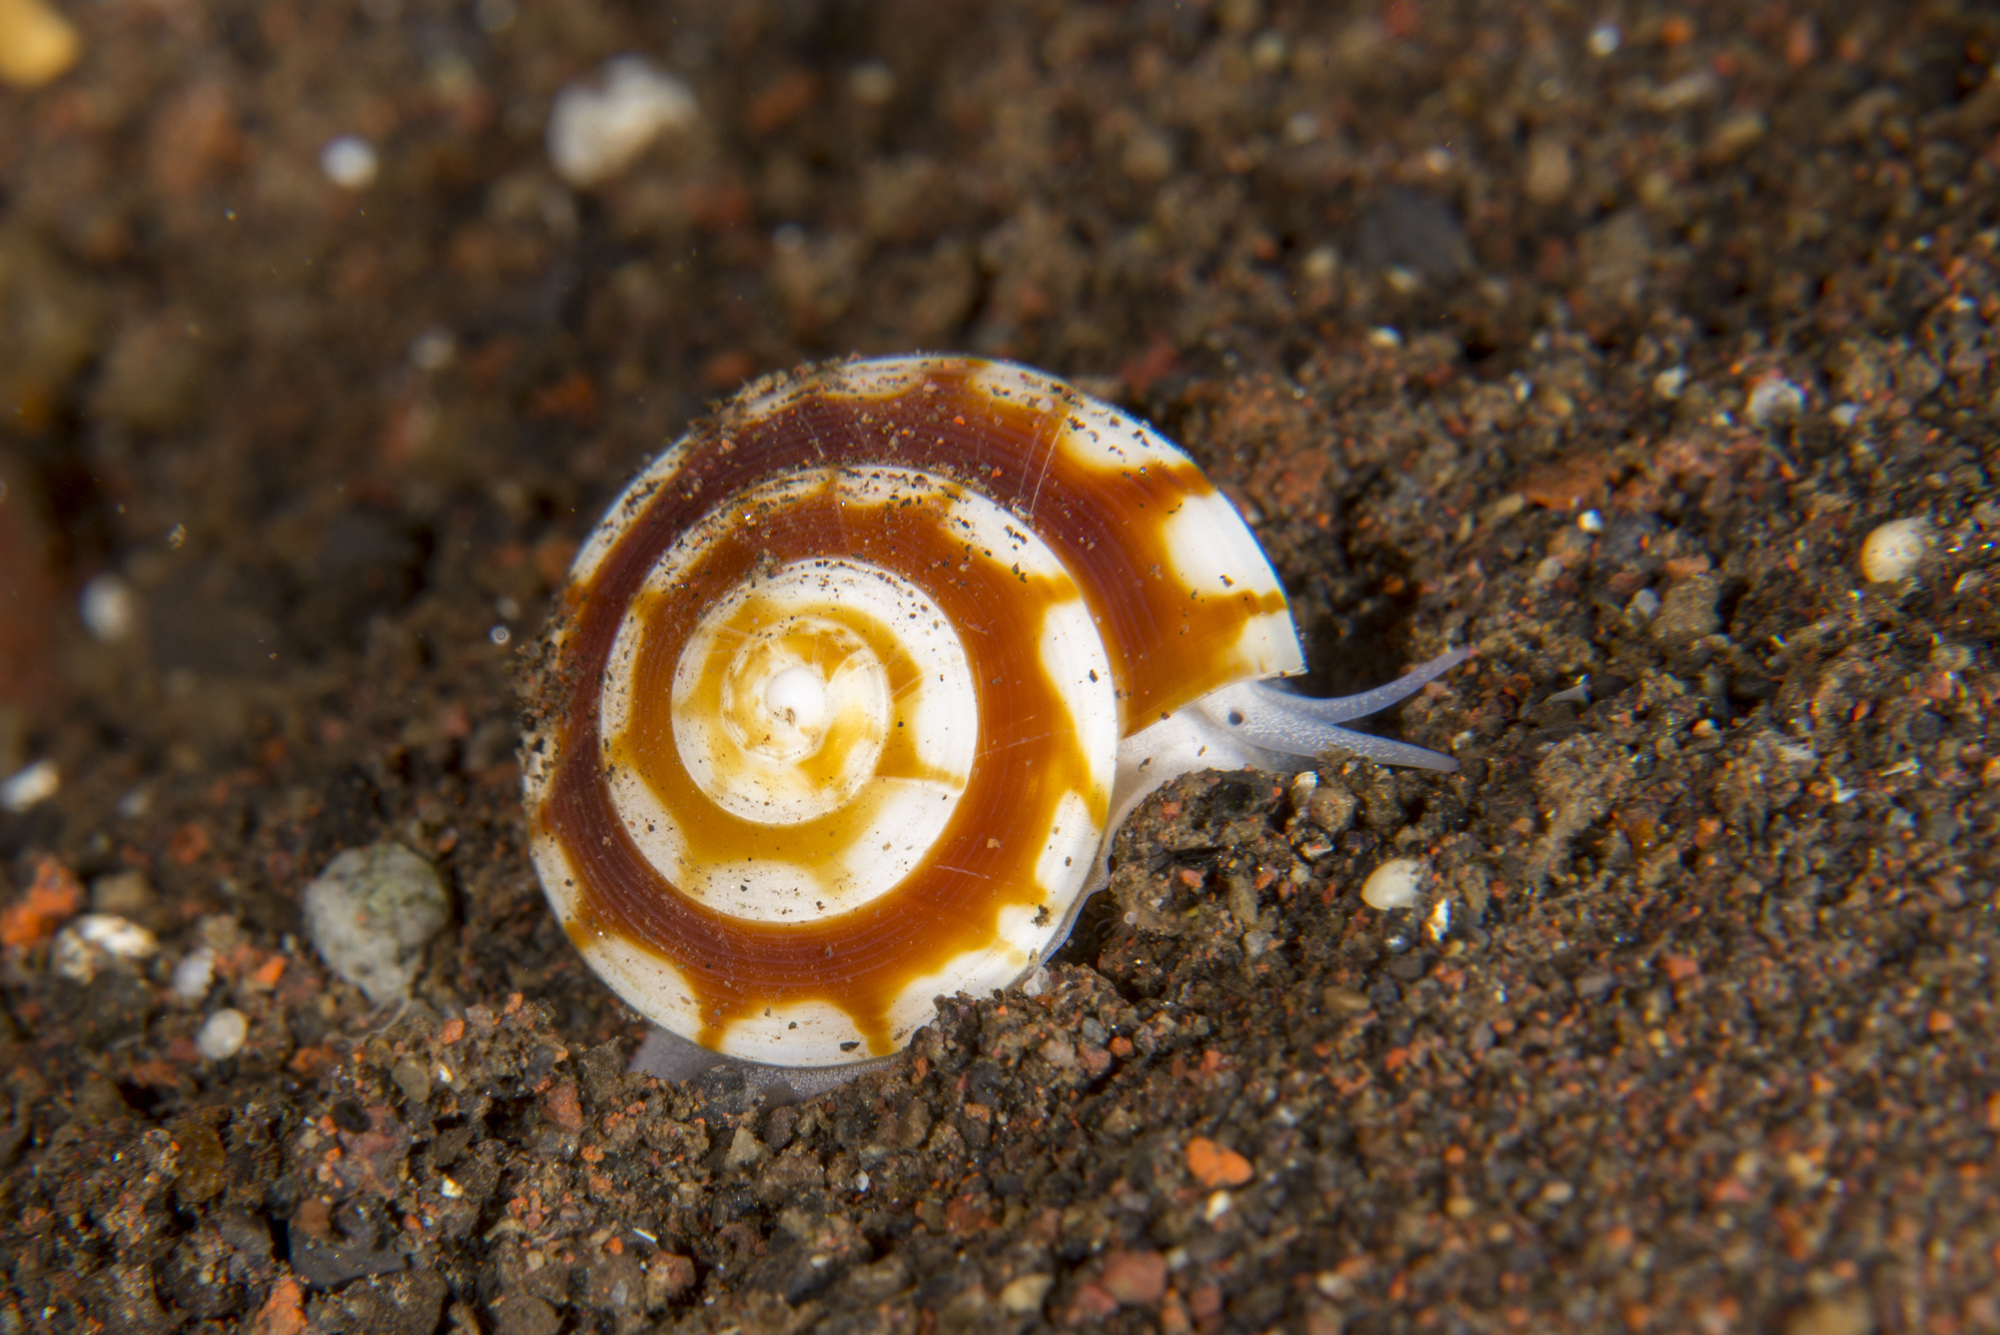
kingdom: Animalia
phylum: Mollusca
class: Gastropoda
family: Architectonicidae
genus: Psilaxis
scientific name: Psilaxis radiatus
